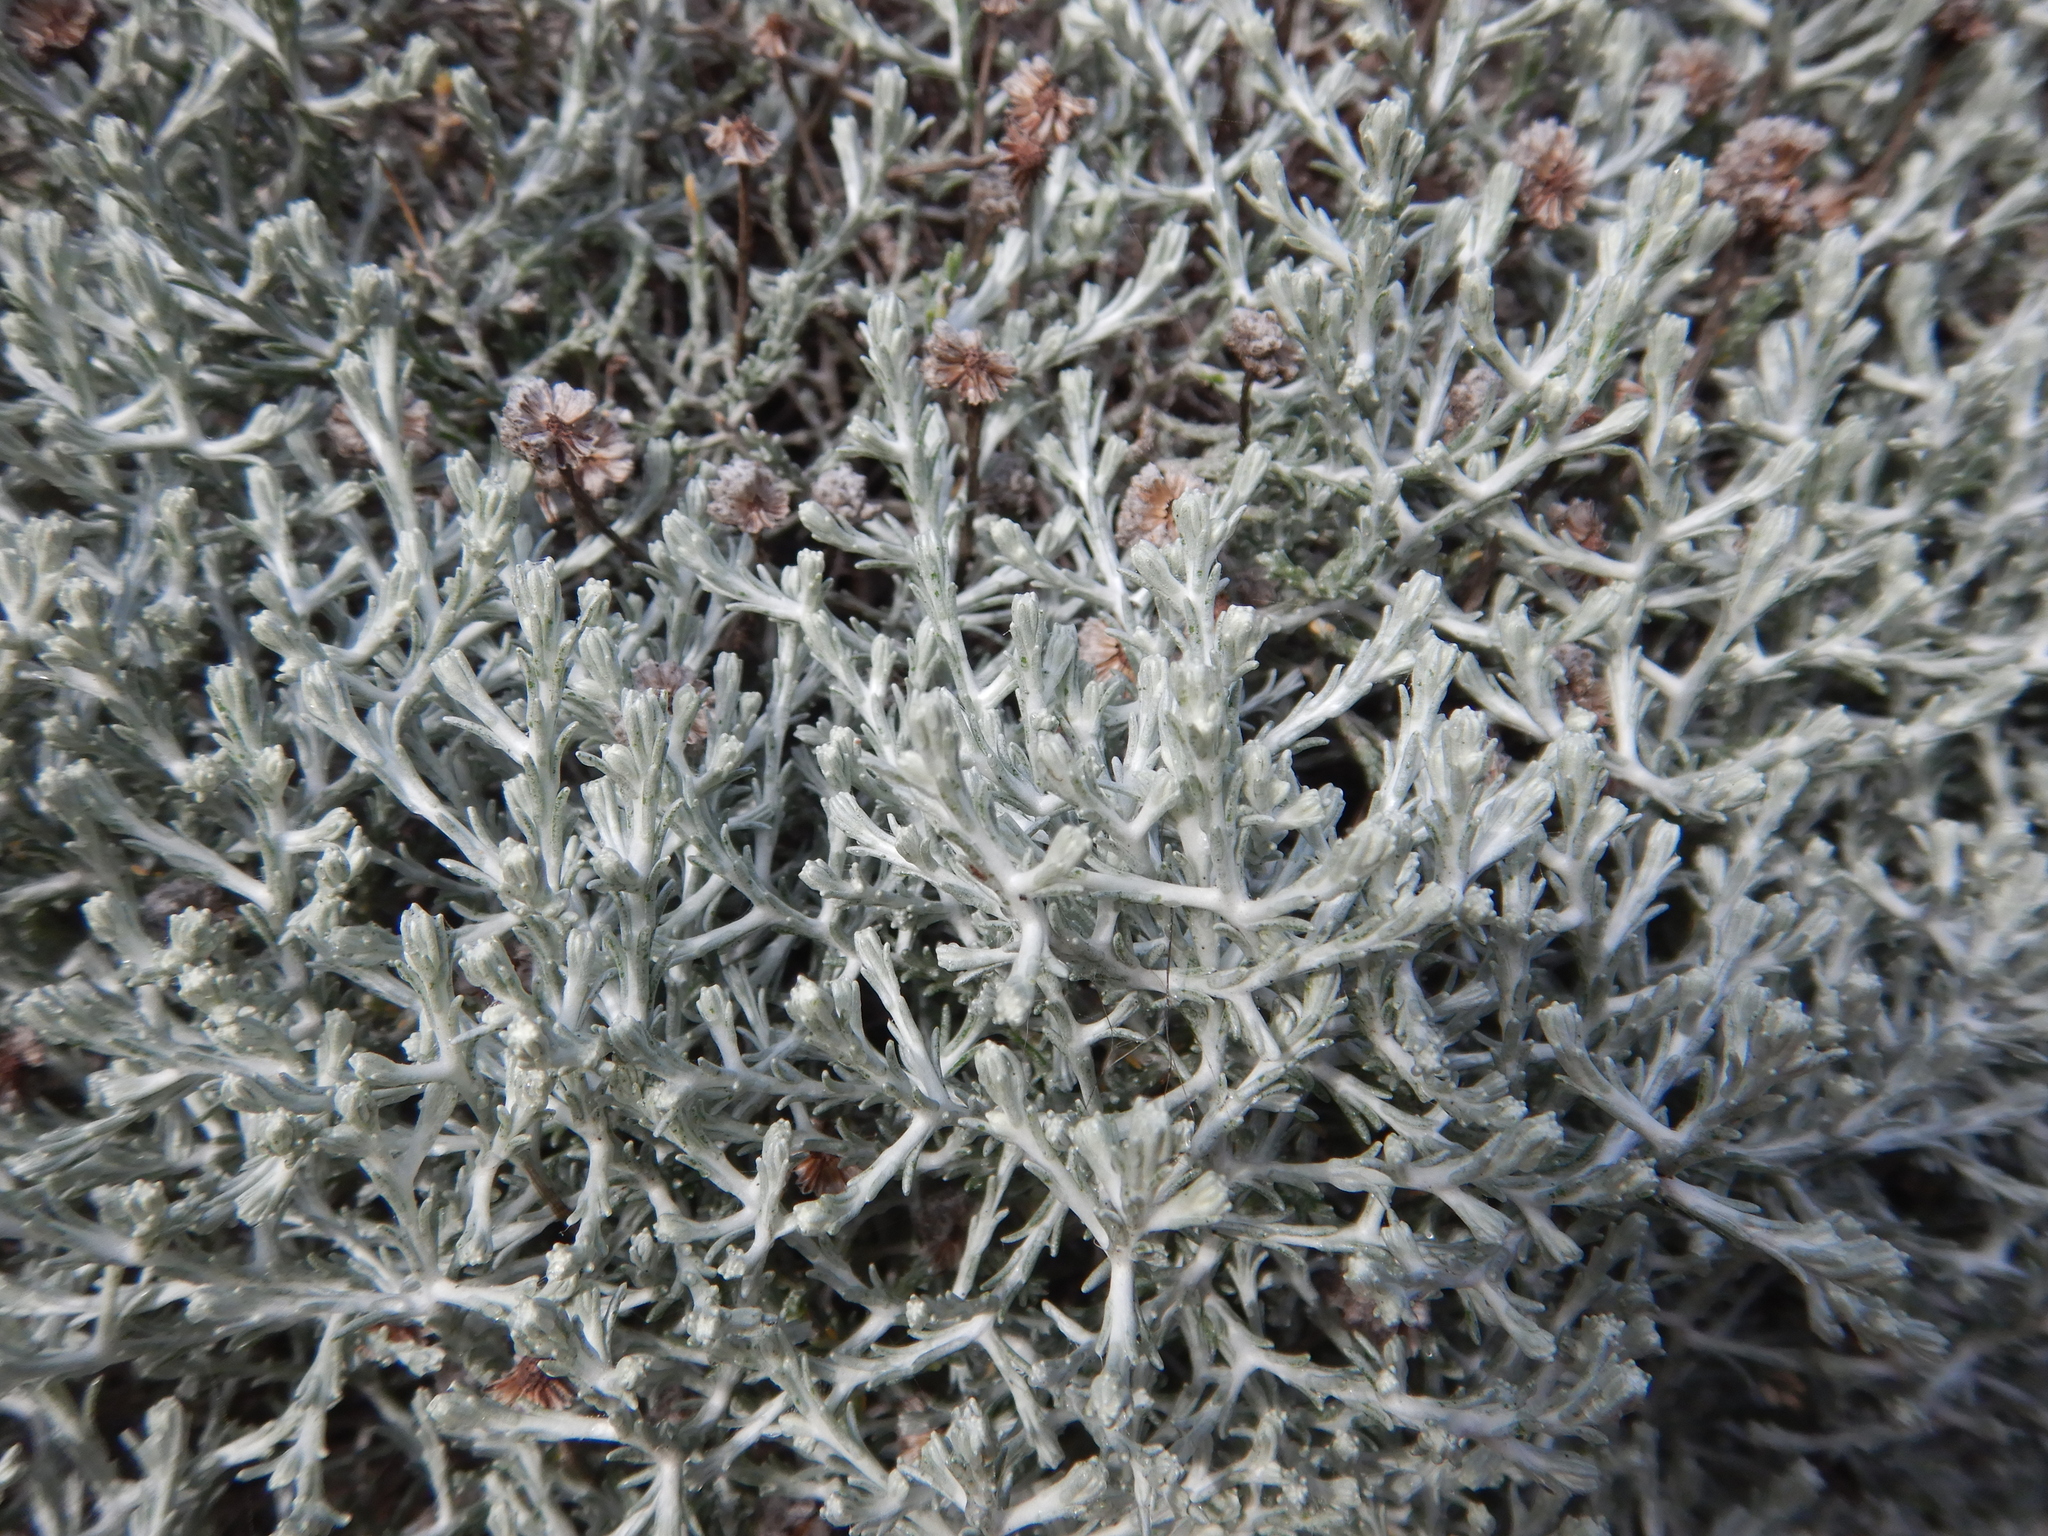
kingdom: Plantae
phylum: Tracheophyta
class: Magnoliopsida
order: Asterales
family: Asteraceae
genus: Calocephalus
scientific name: Calocephalus brownii
